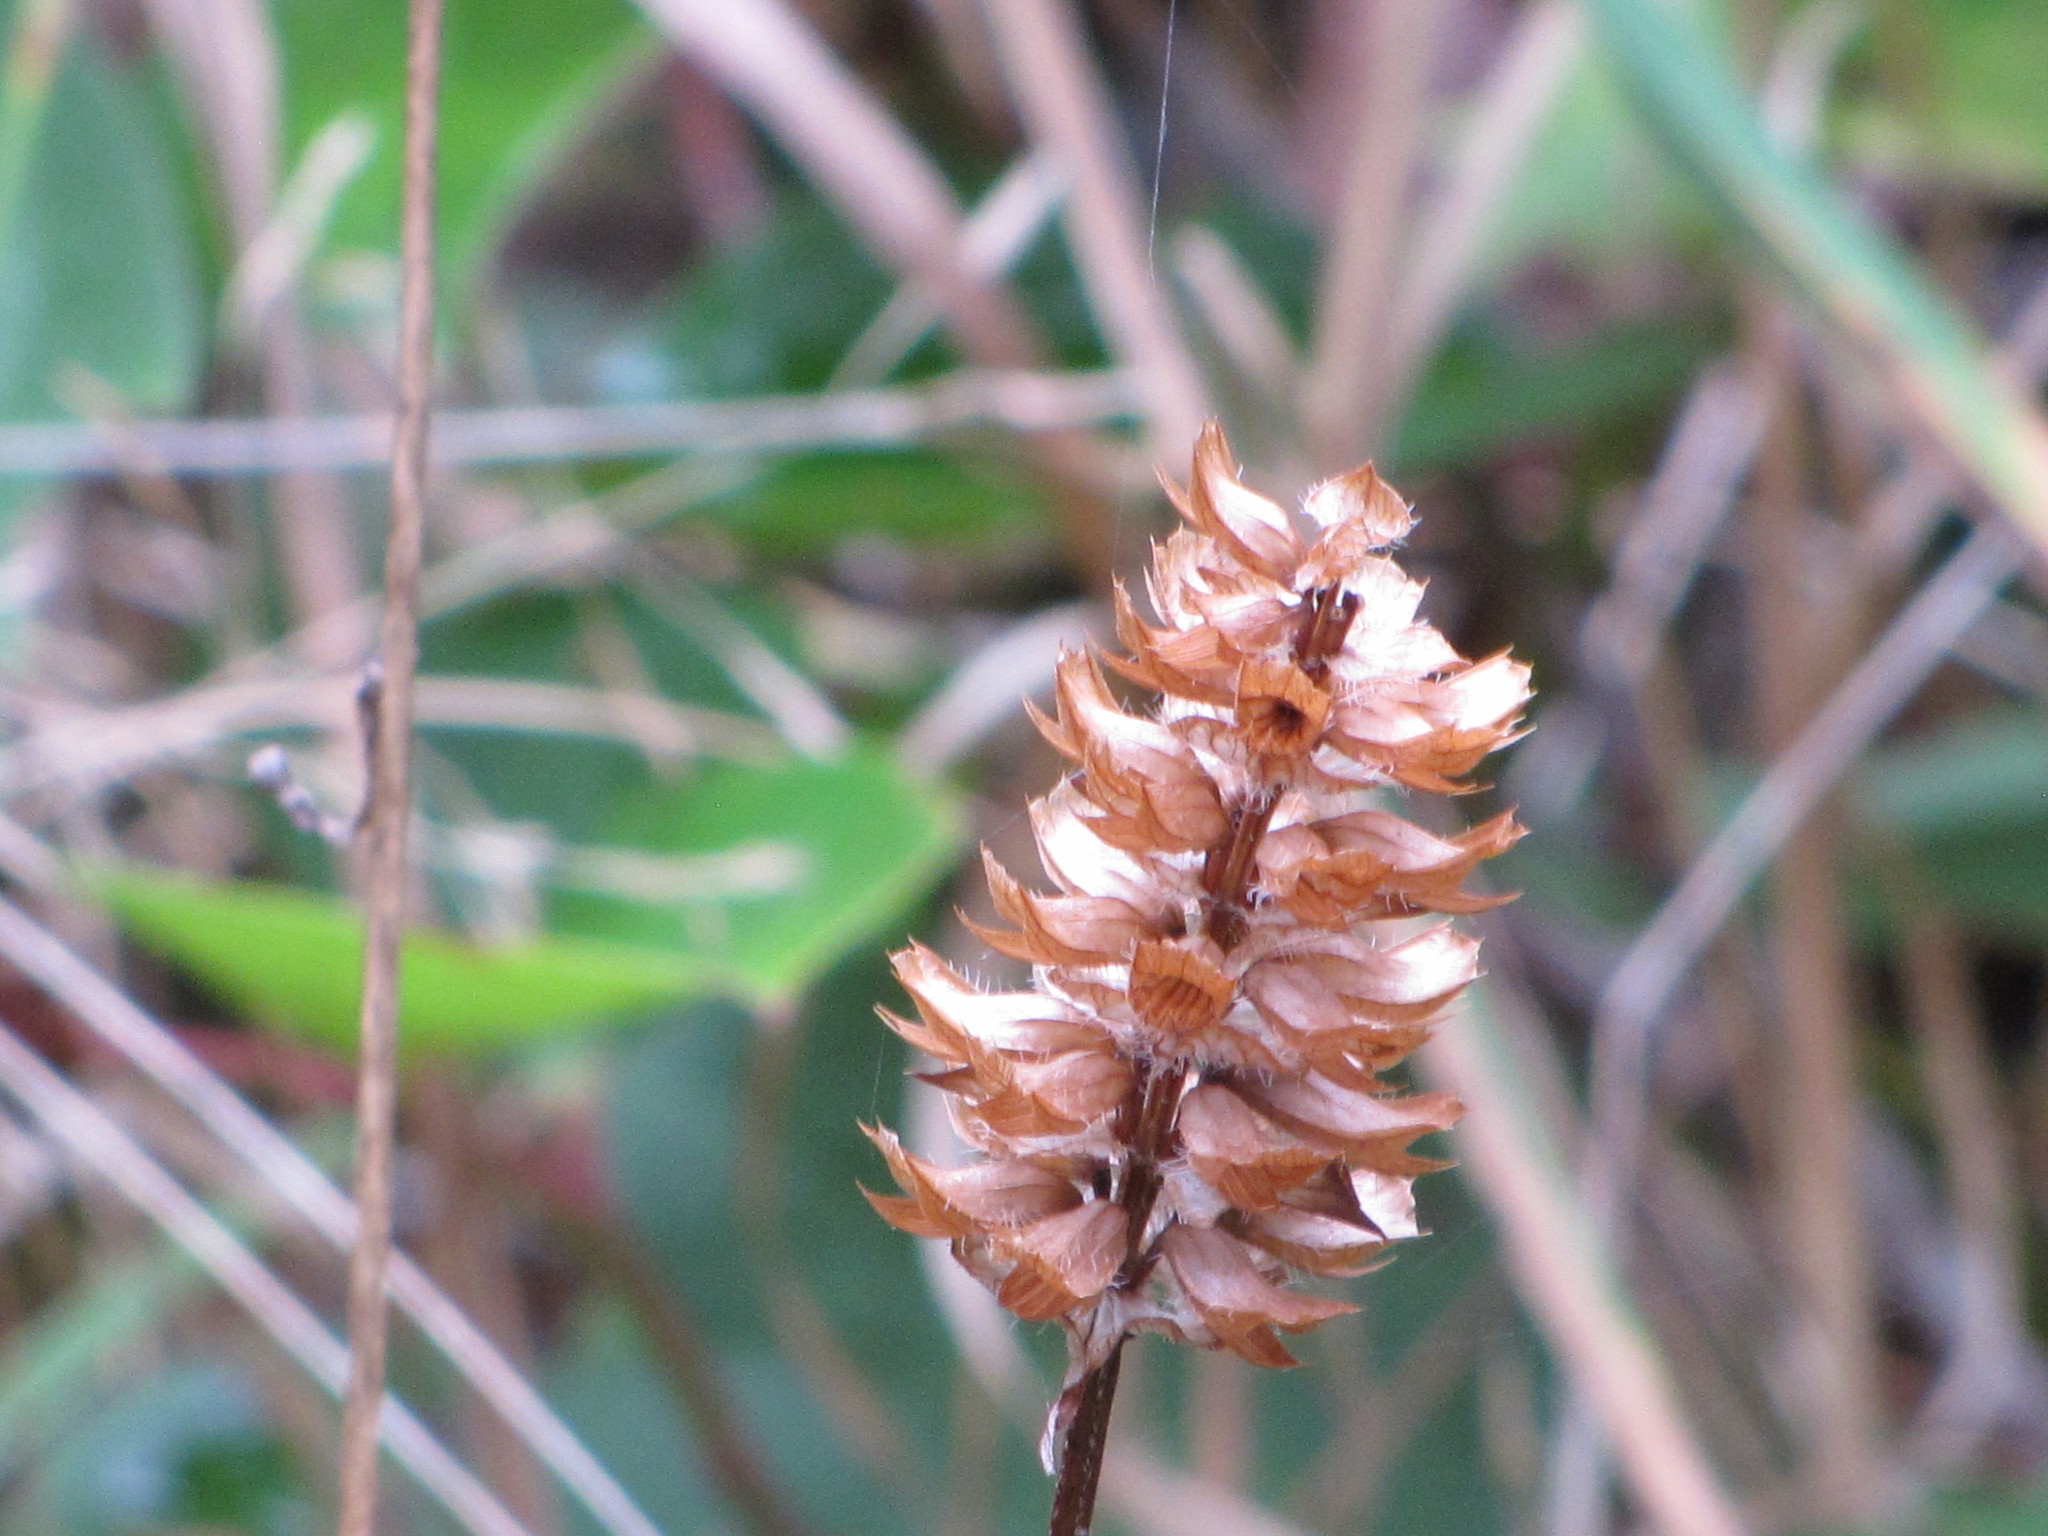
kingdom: Plantae
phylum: Tracheophyta
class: Magnoliopsida
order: Lamiales
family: Lamiaceae
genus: Prunella
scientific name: Prunella vulgaris
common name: Heal-all
